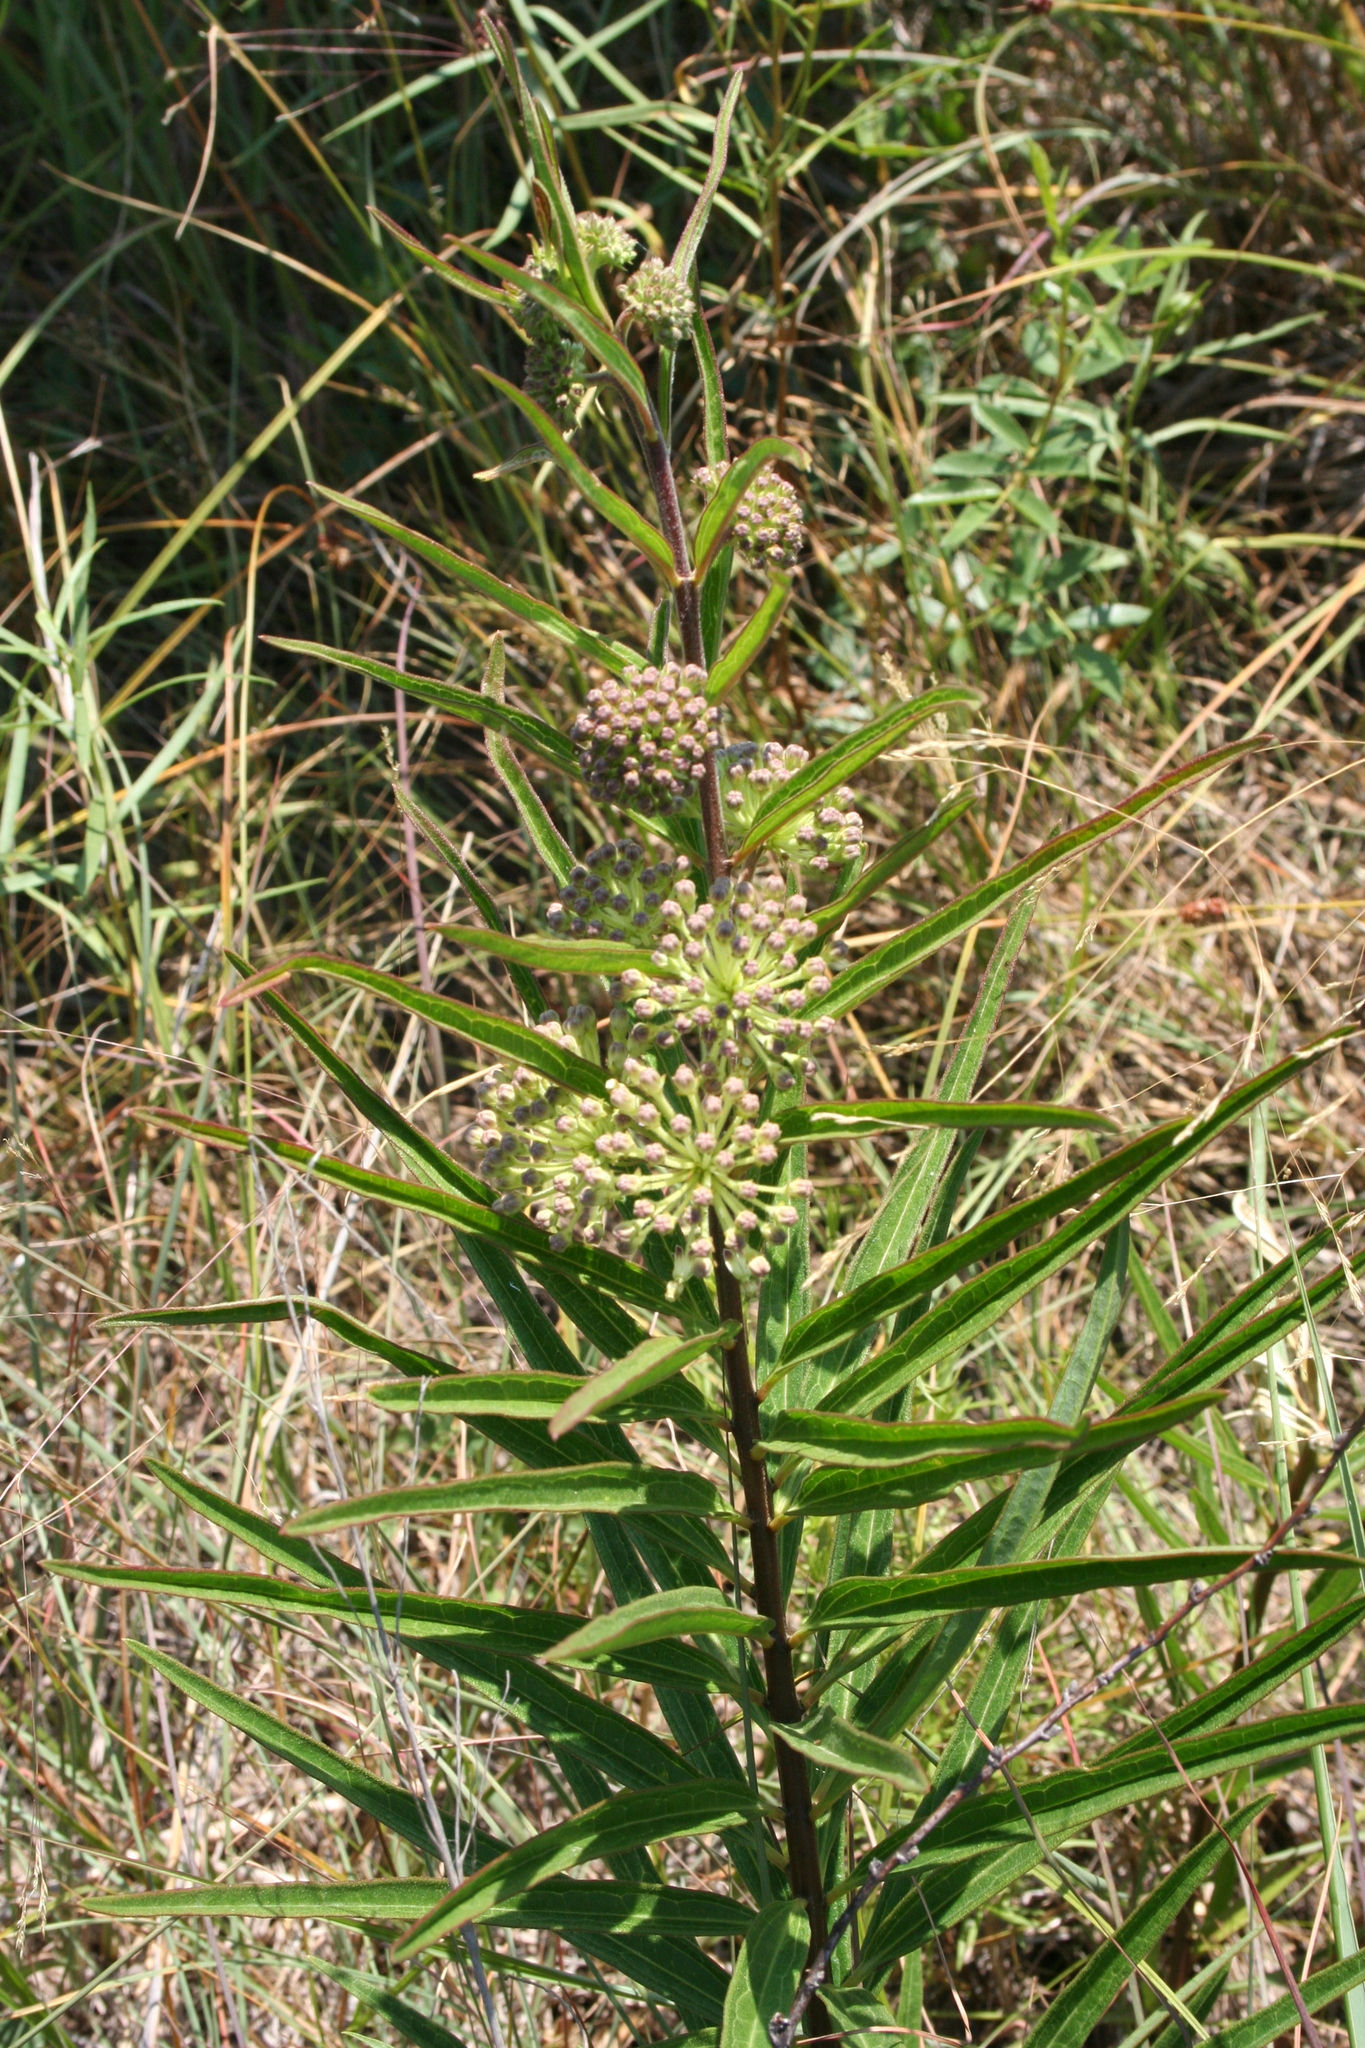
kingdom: Plantae
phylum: Tracheophyta
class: Magnoliopsida
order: Gentianales
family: Apocynaceae
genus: Asclepias
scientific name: Asclepias hirtella
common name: Prairie milkweed
